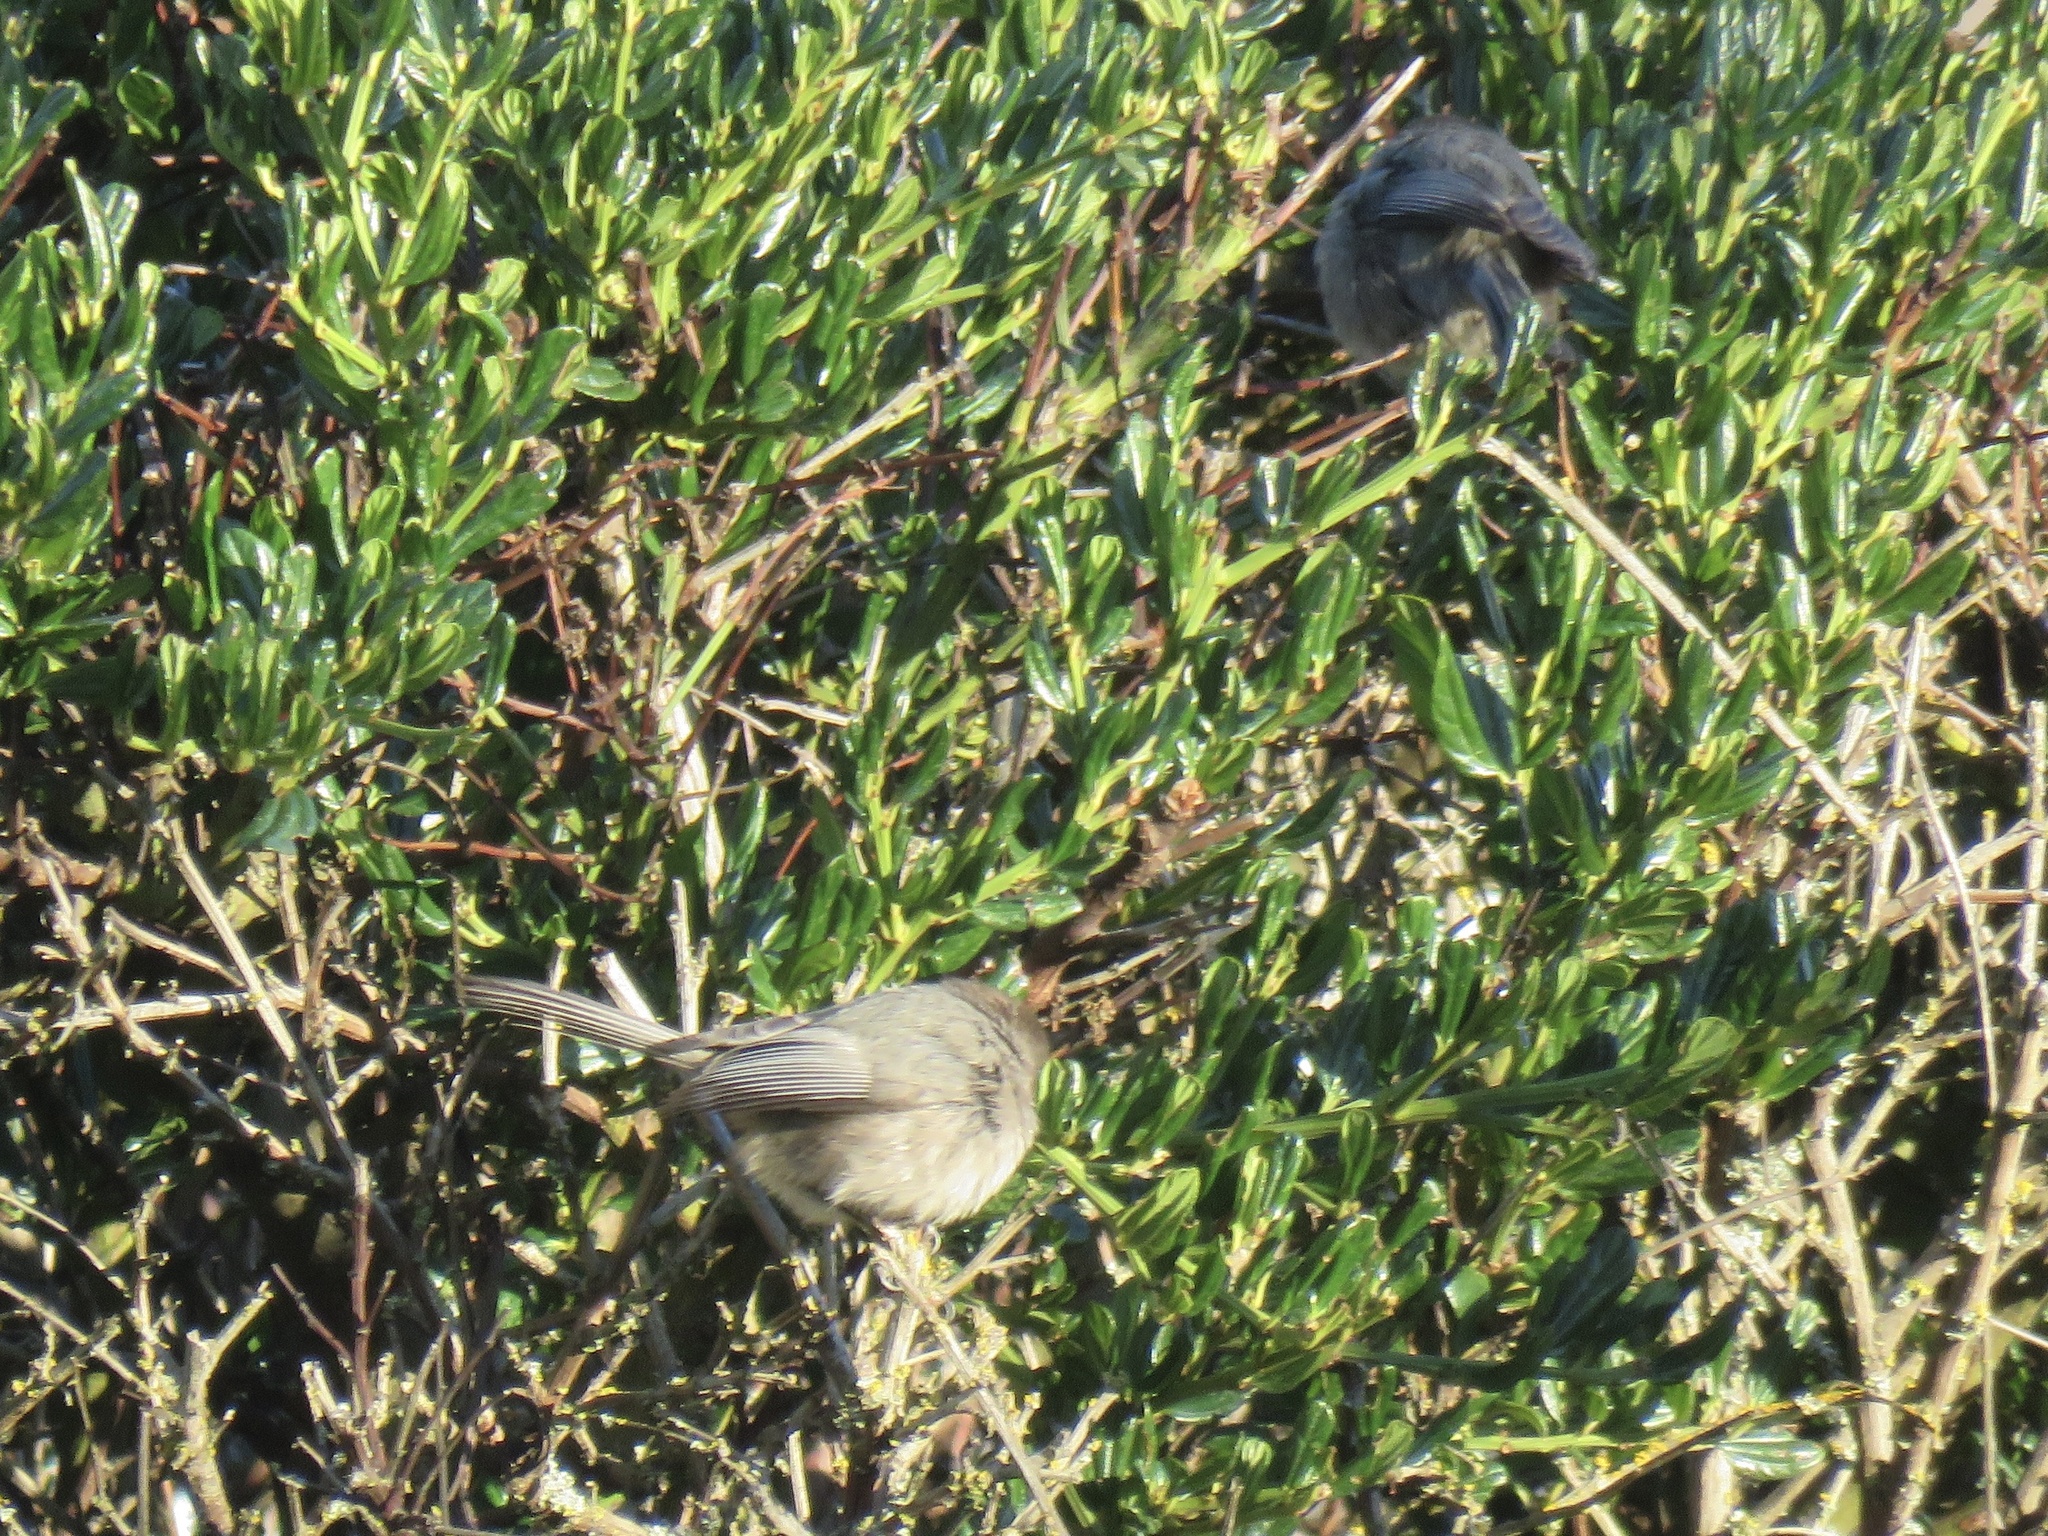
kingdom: Animalia
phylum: Chordata
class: Aves
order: Passeriformes
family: Aegithalidae
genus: Psaltriparus
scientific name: Psaltriparus minimus
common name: American bushtit
